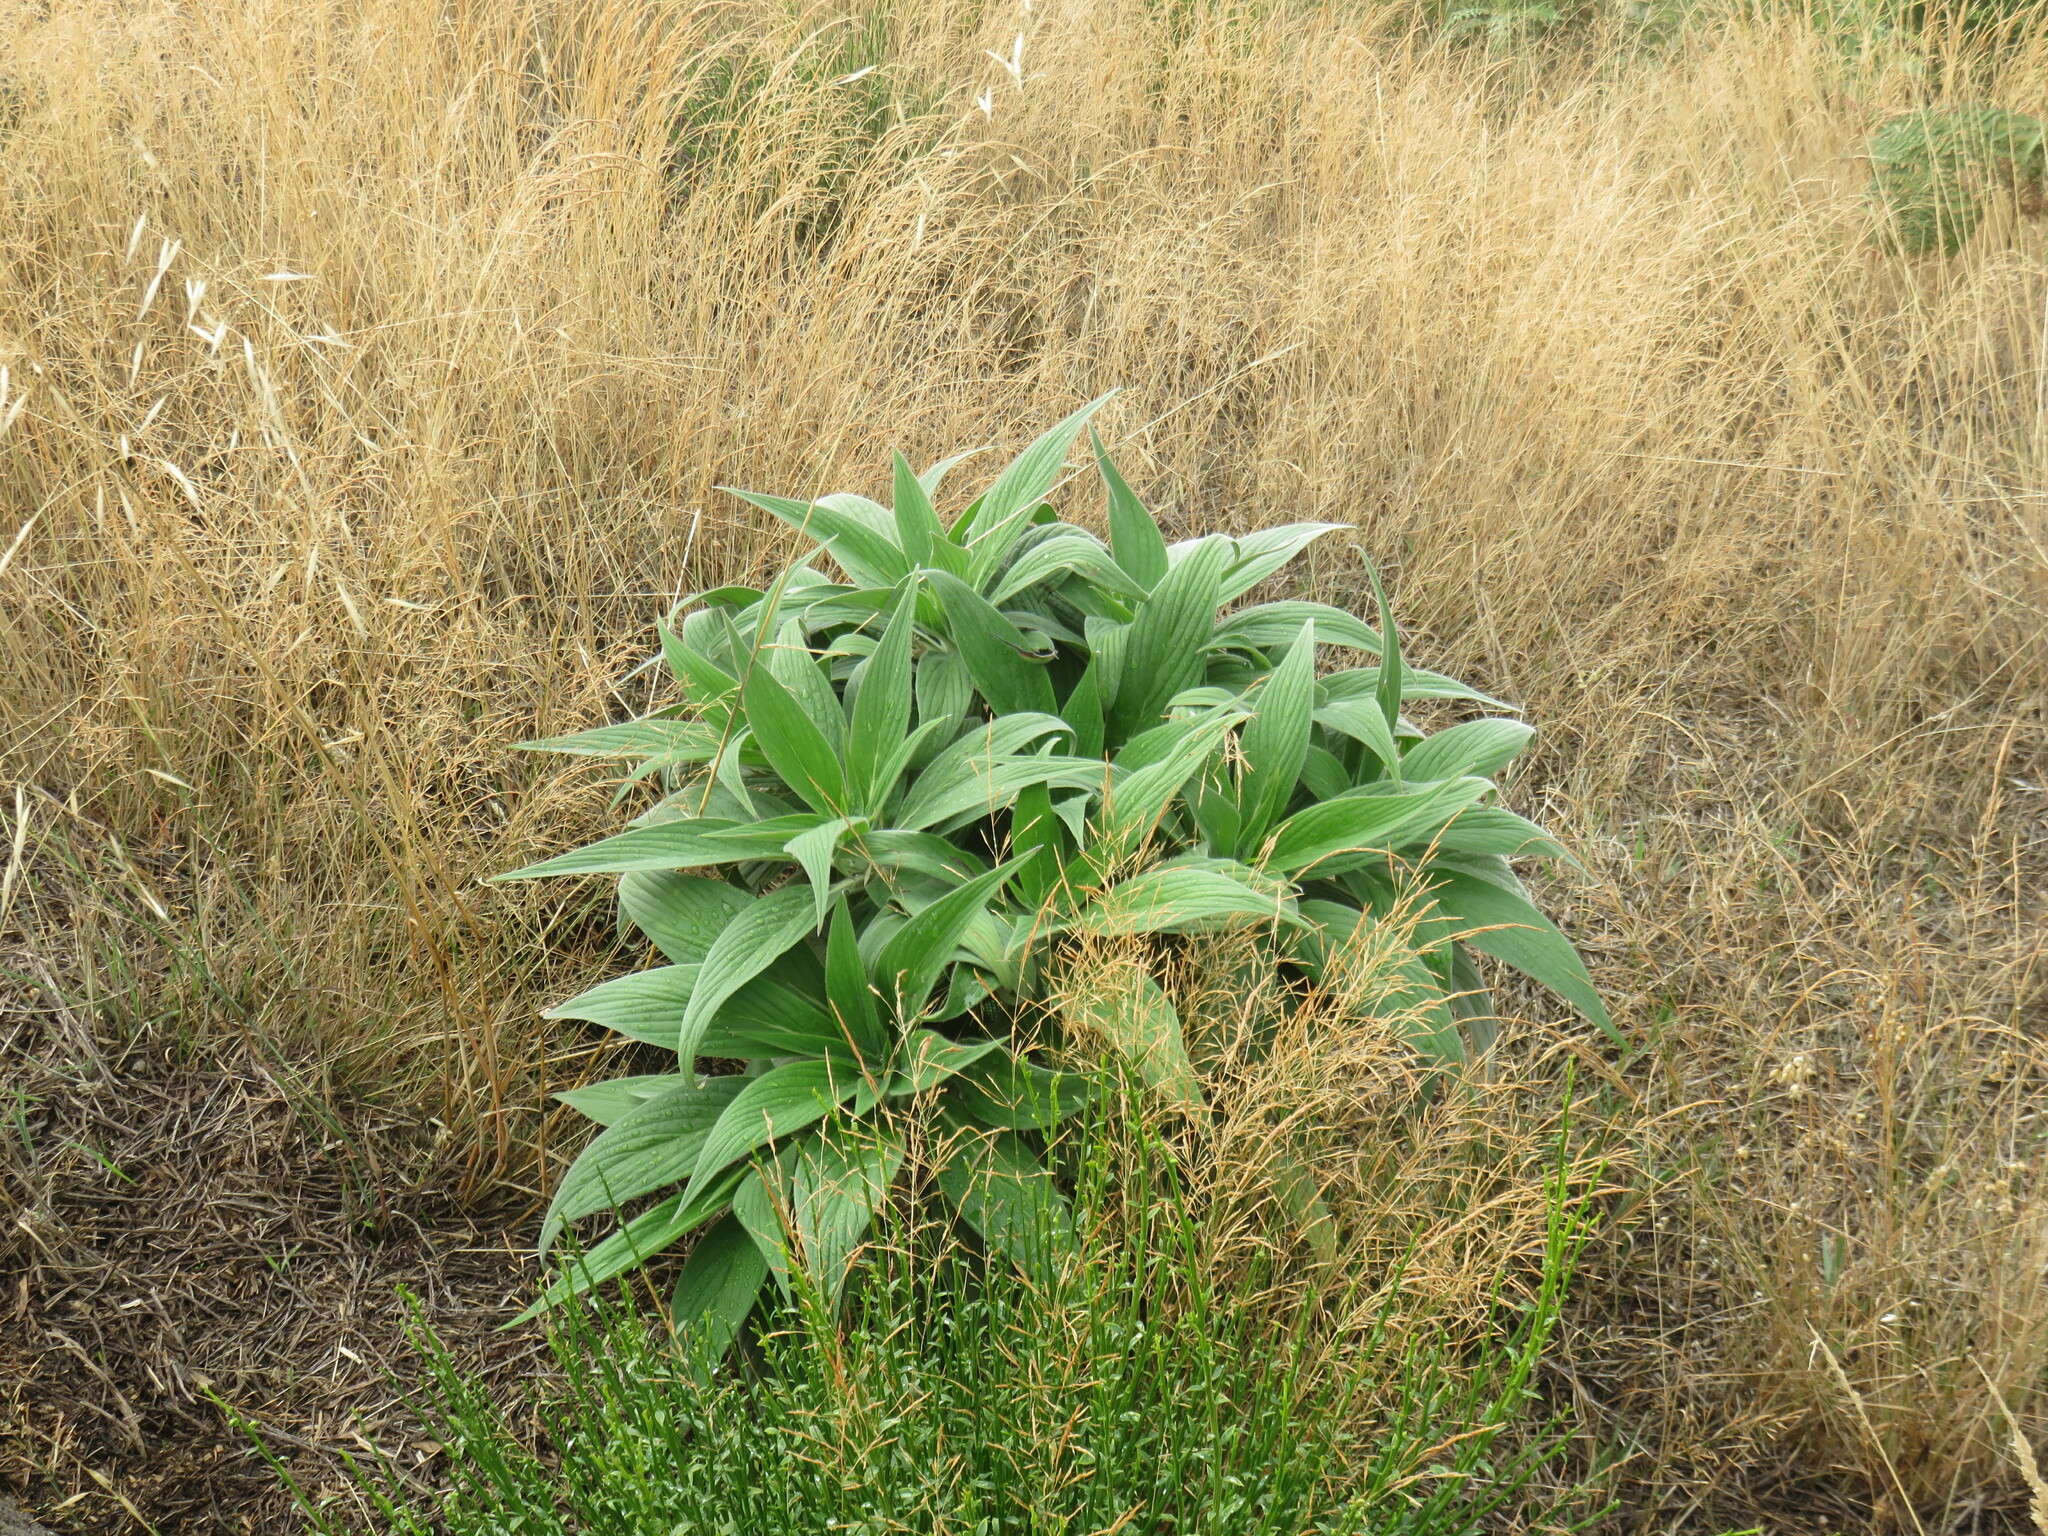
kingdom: Plantae
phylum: Tracheophyta
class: Magnoliopsida
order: Boraginales
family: Boraginaceae
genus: Echium
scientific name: Echium candicans
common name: Pride of madeira
